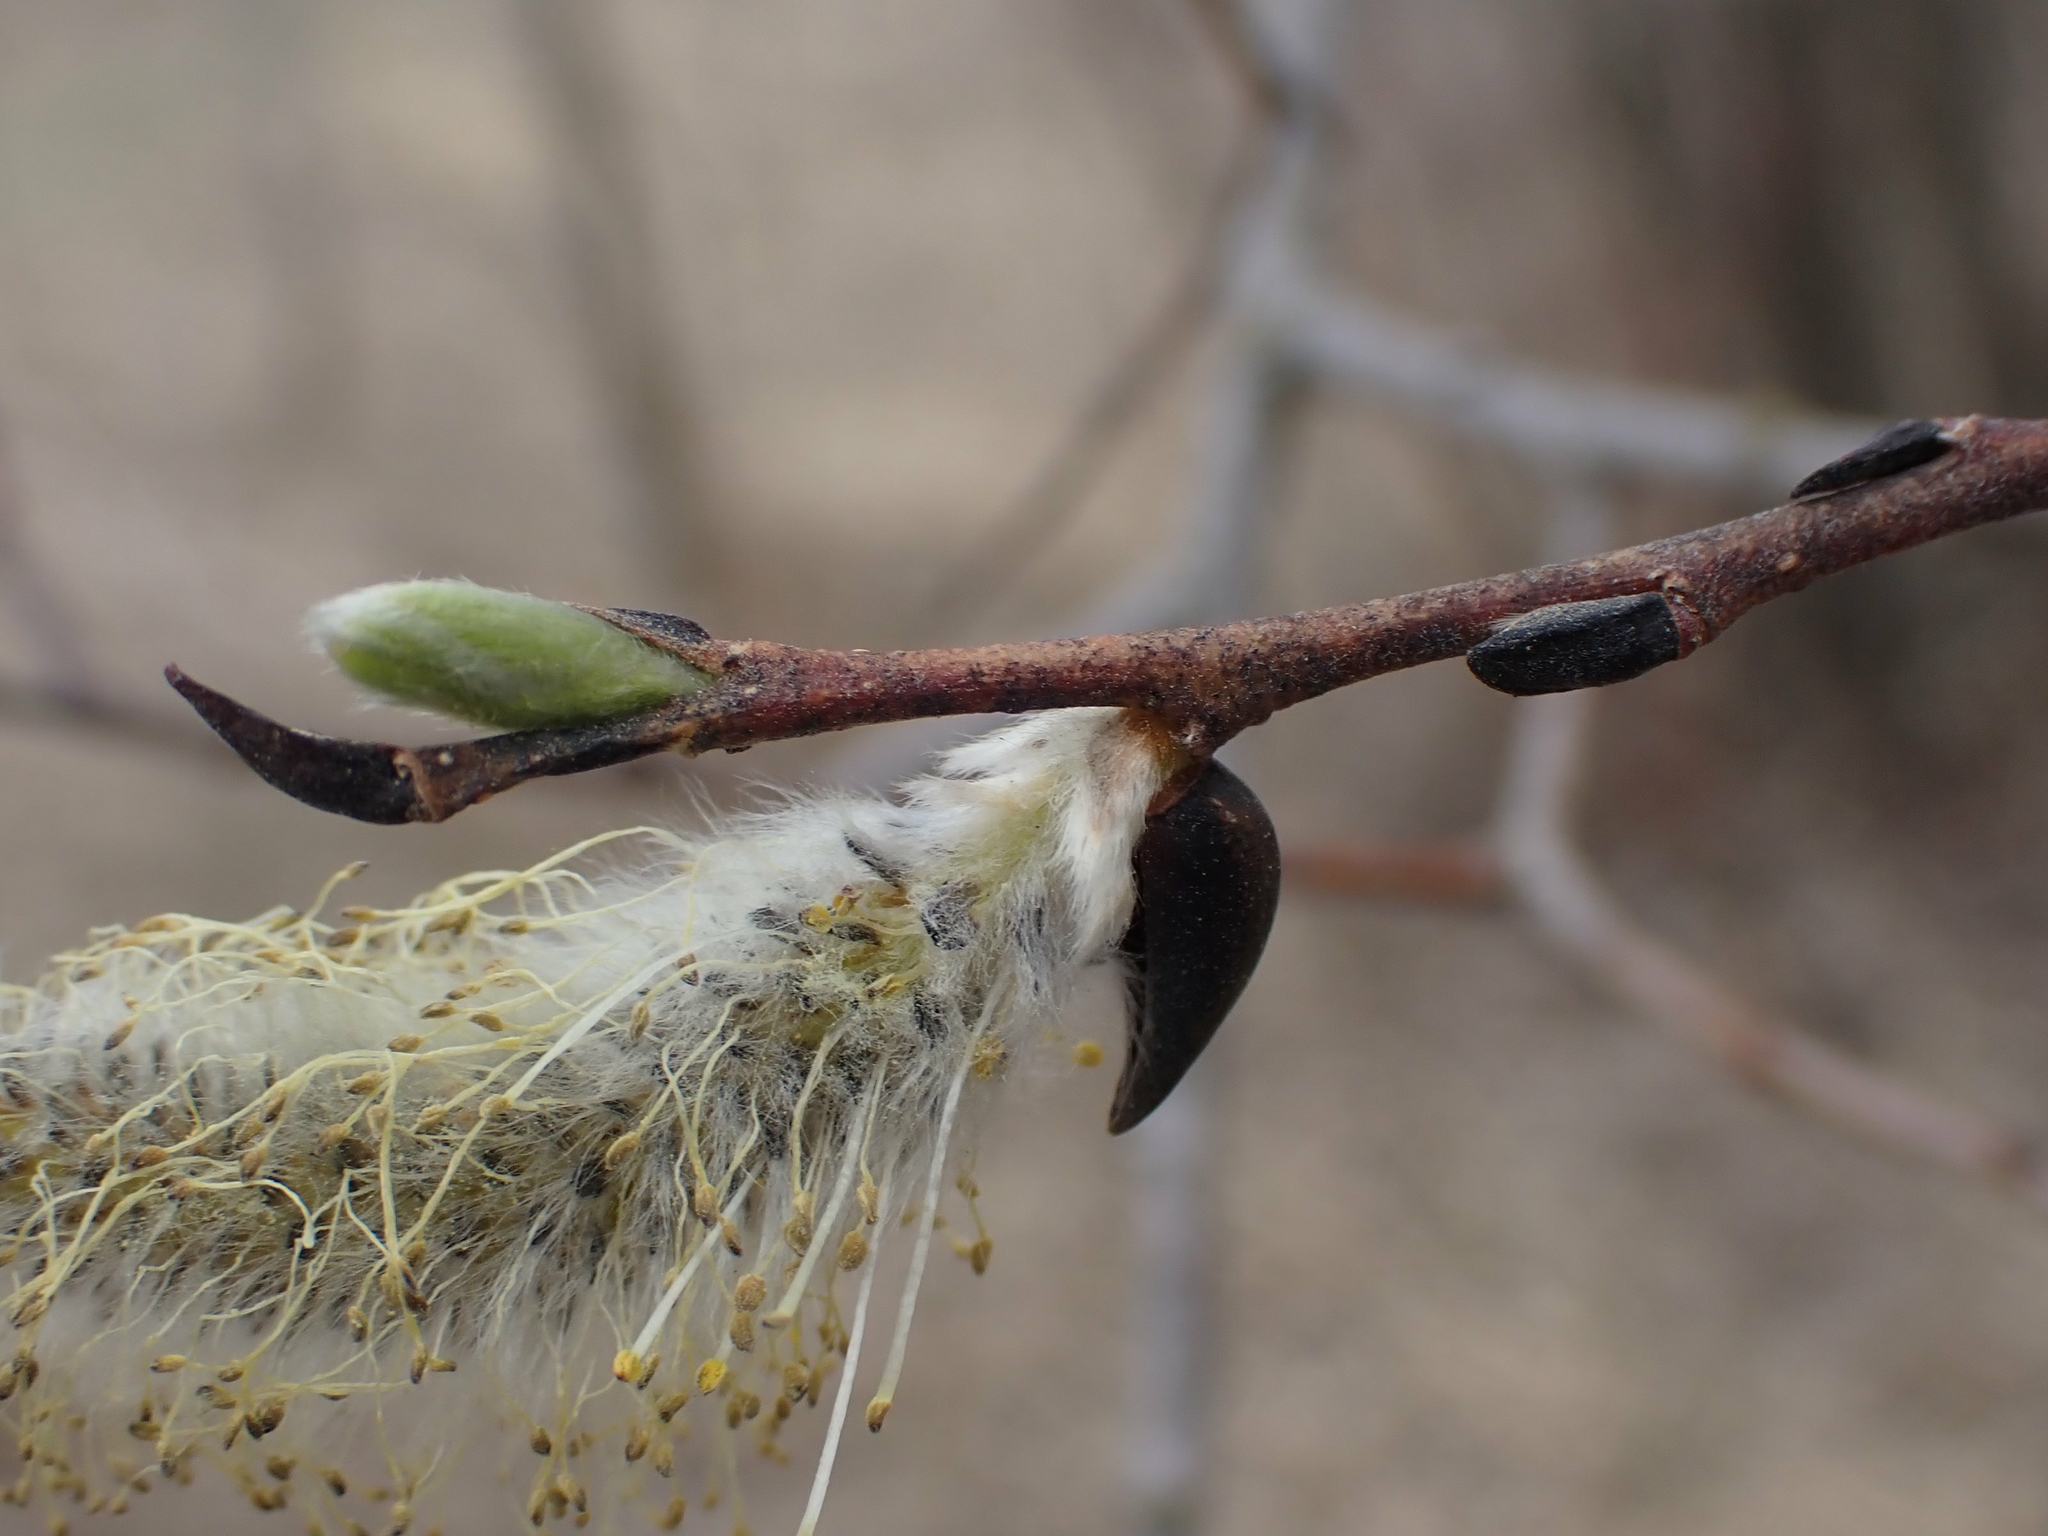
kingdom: Plantae
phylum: Tracheophyta
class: Magnoliopsida
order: Malpighiales
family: Salicaceae
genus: Salix
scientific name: Salix discolor
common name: Glaucous willow
